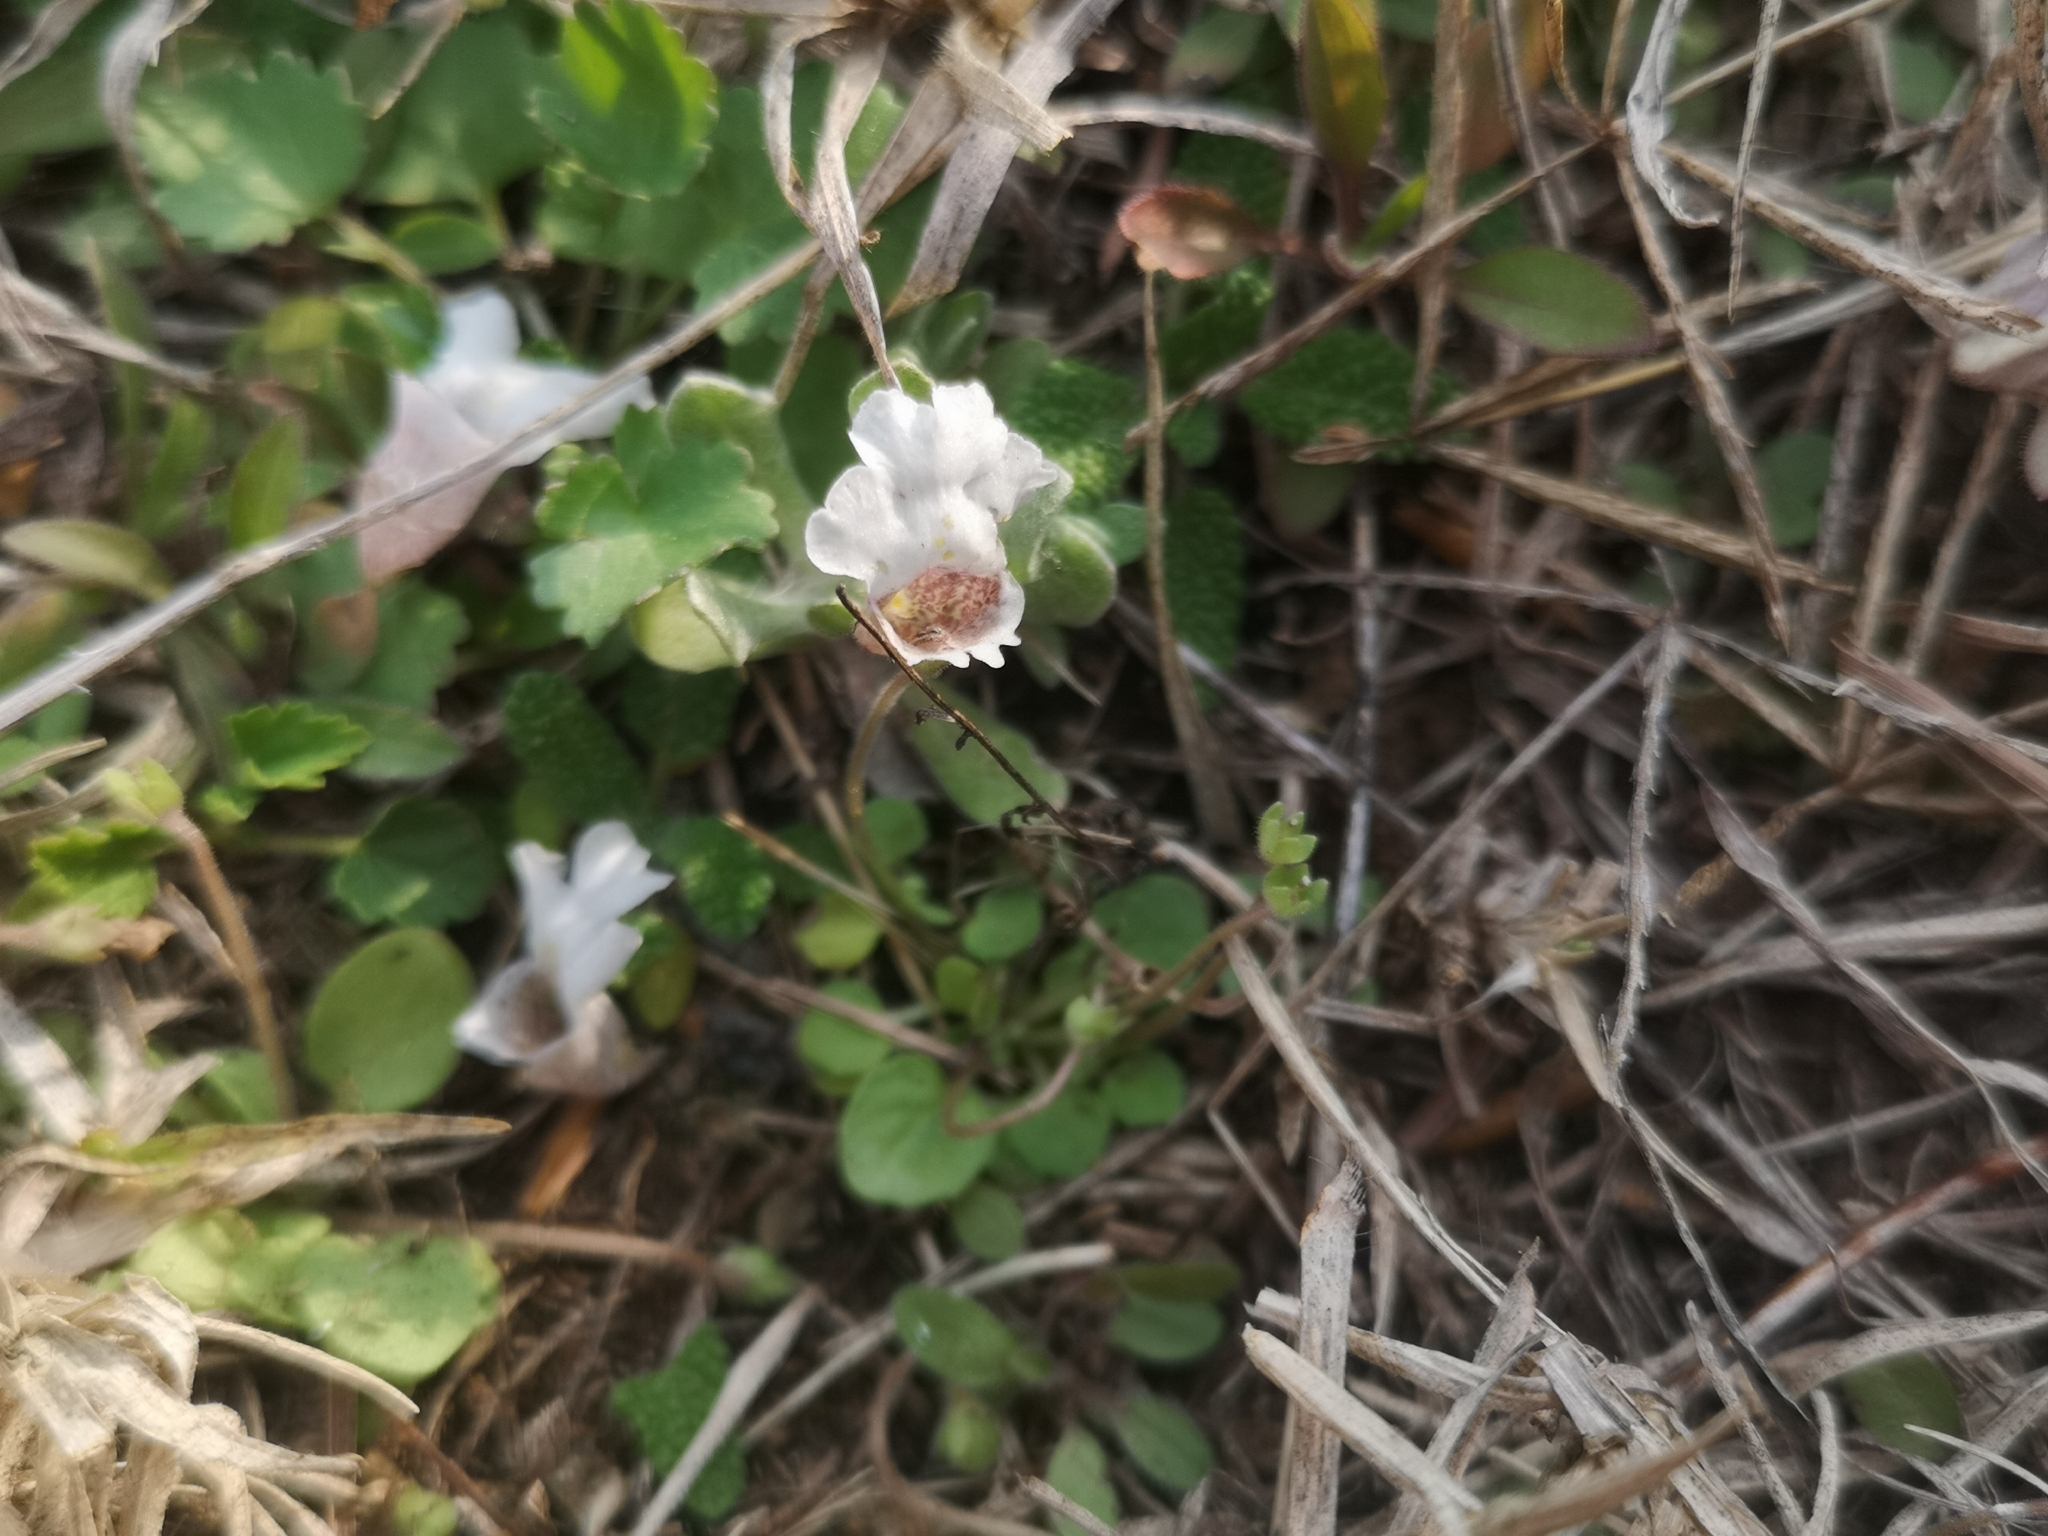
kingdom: Plantae
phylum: Tracheophyta
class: Magnoliopsida
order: Lamiales
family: Scrophulariaceae
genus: Diclis
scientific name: Diclis petiolaris
